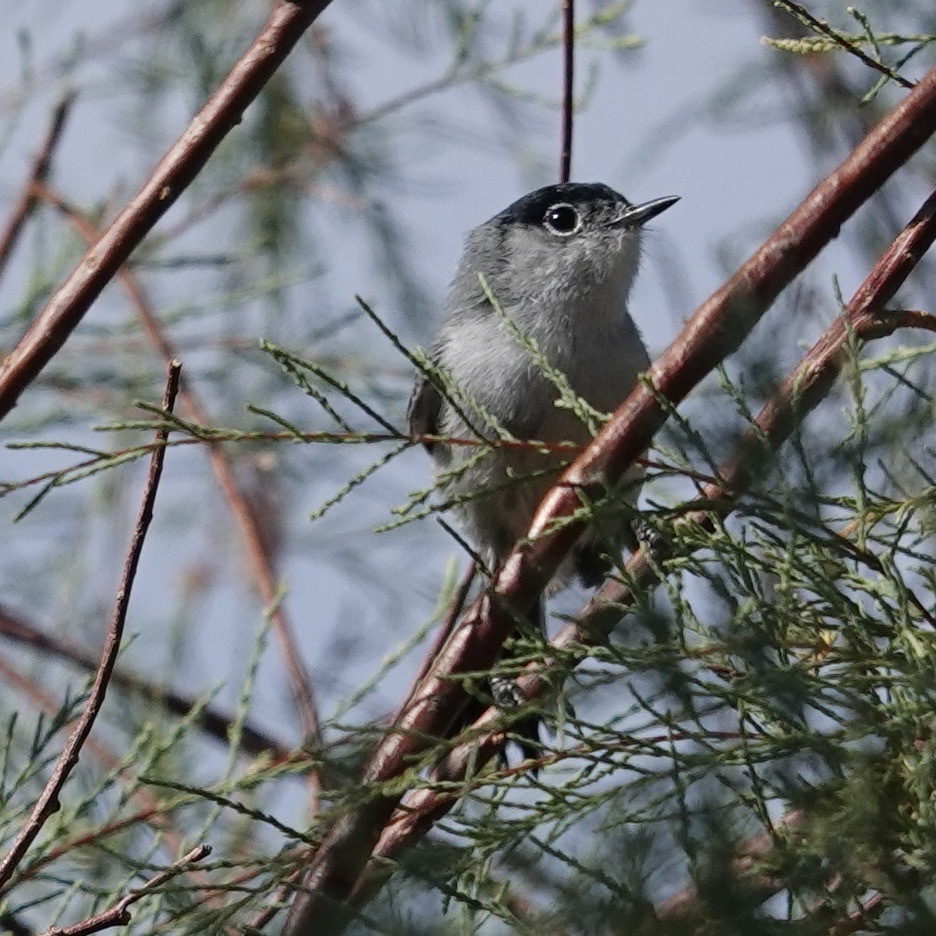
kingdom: Animalia
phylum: Chordata
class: Aves
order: Passeriformes
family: Polioptilidae
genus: Polioptila
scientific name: Polioptila melanura
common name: Black-tailed gnatcatcher
